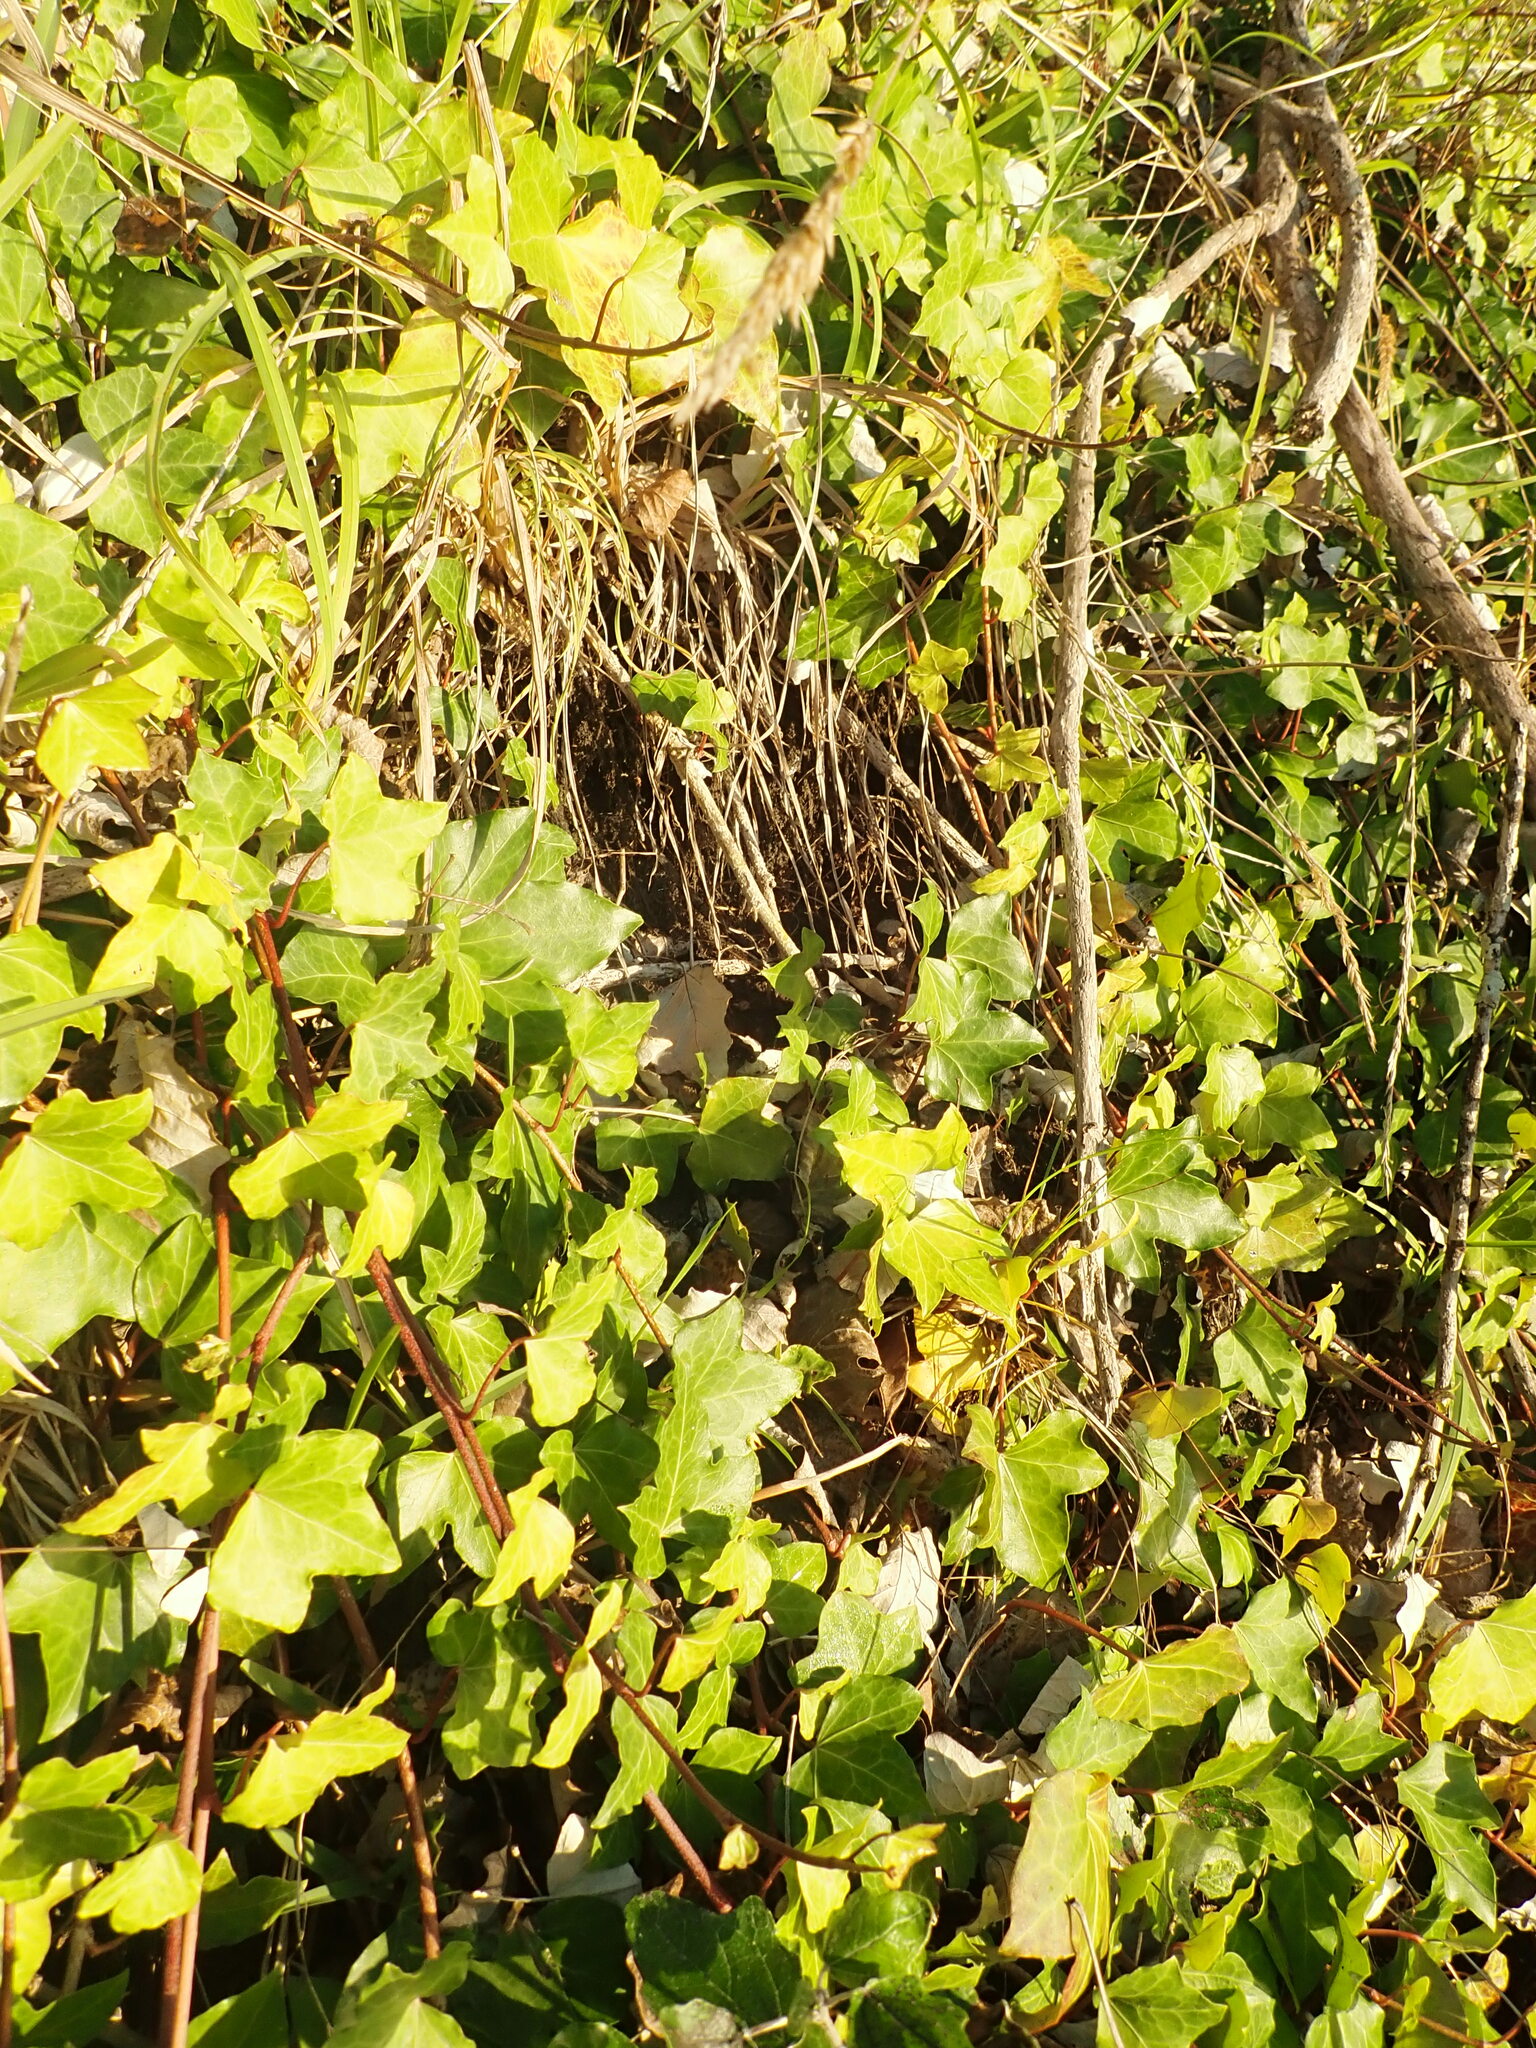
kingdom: Plantae
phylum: Tracheophyta
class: Magnoliopsida
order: Apiales
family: Araliaceae
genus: Hedera
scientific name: Hedera helix
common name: Ivy
